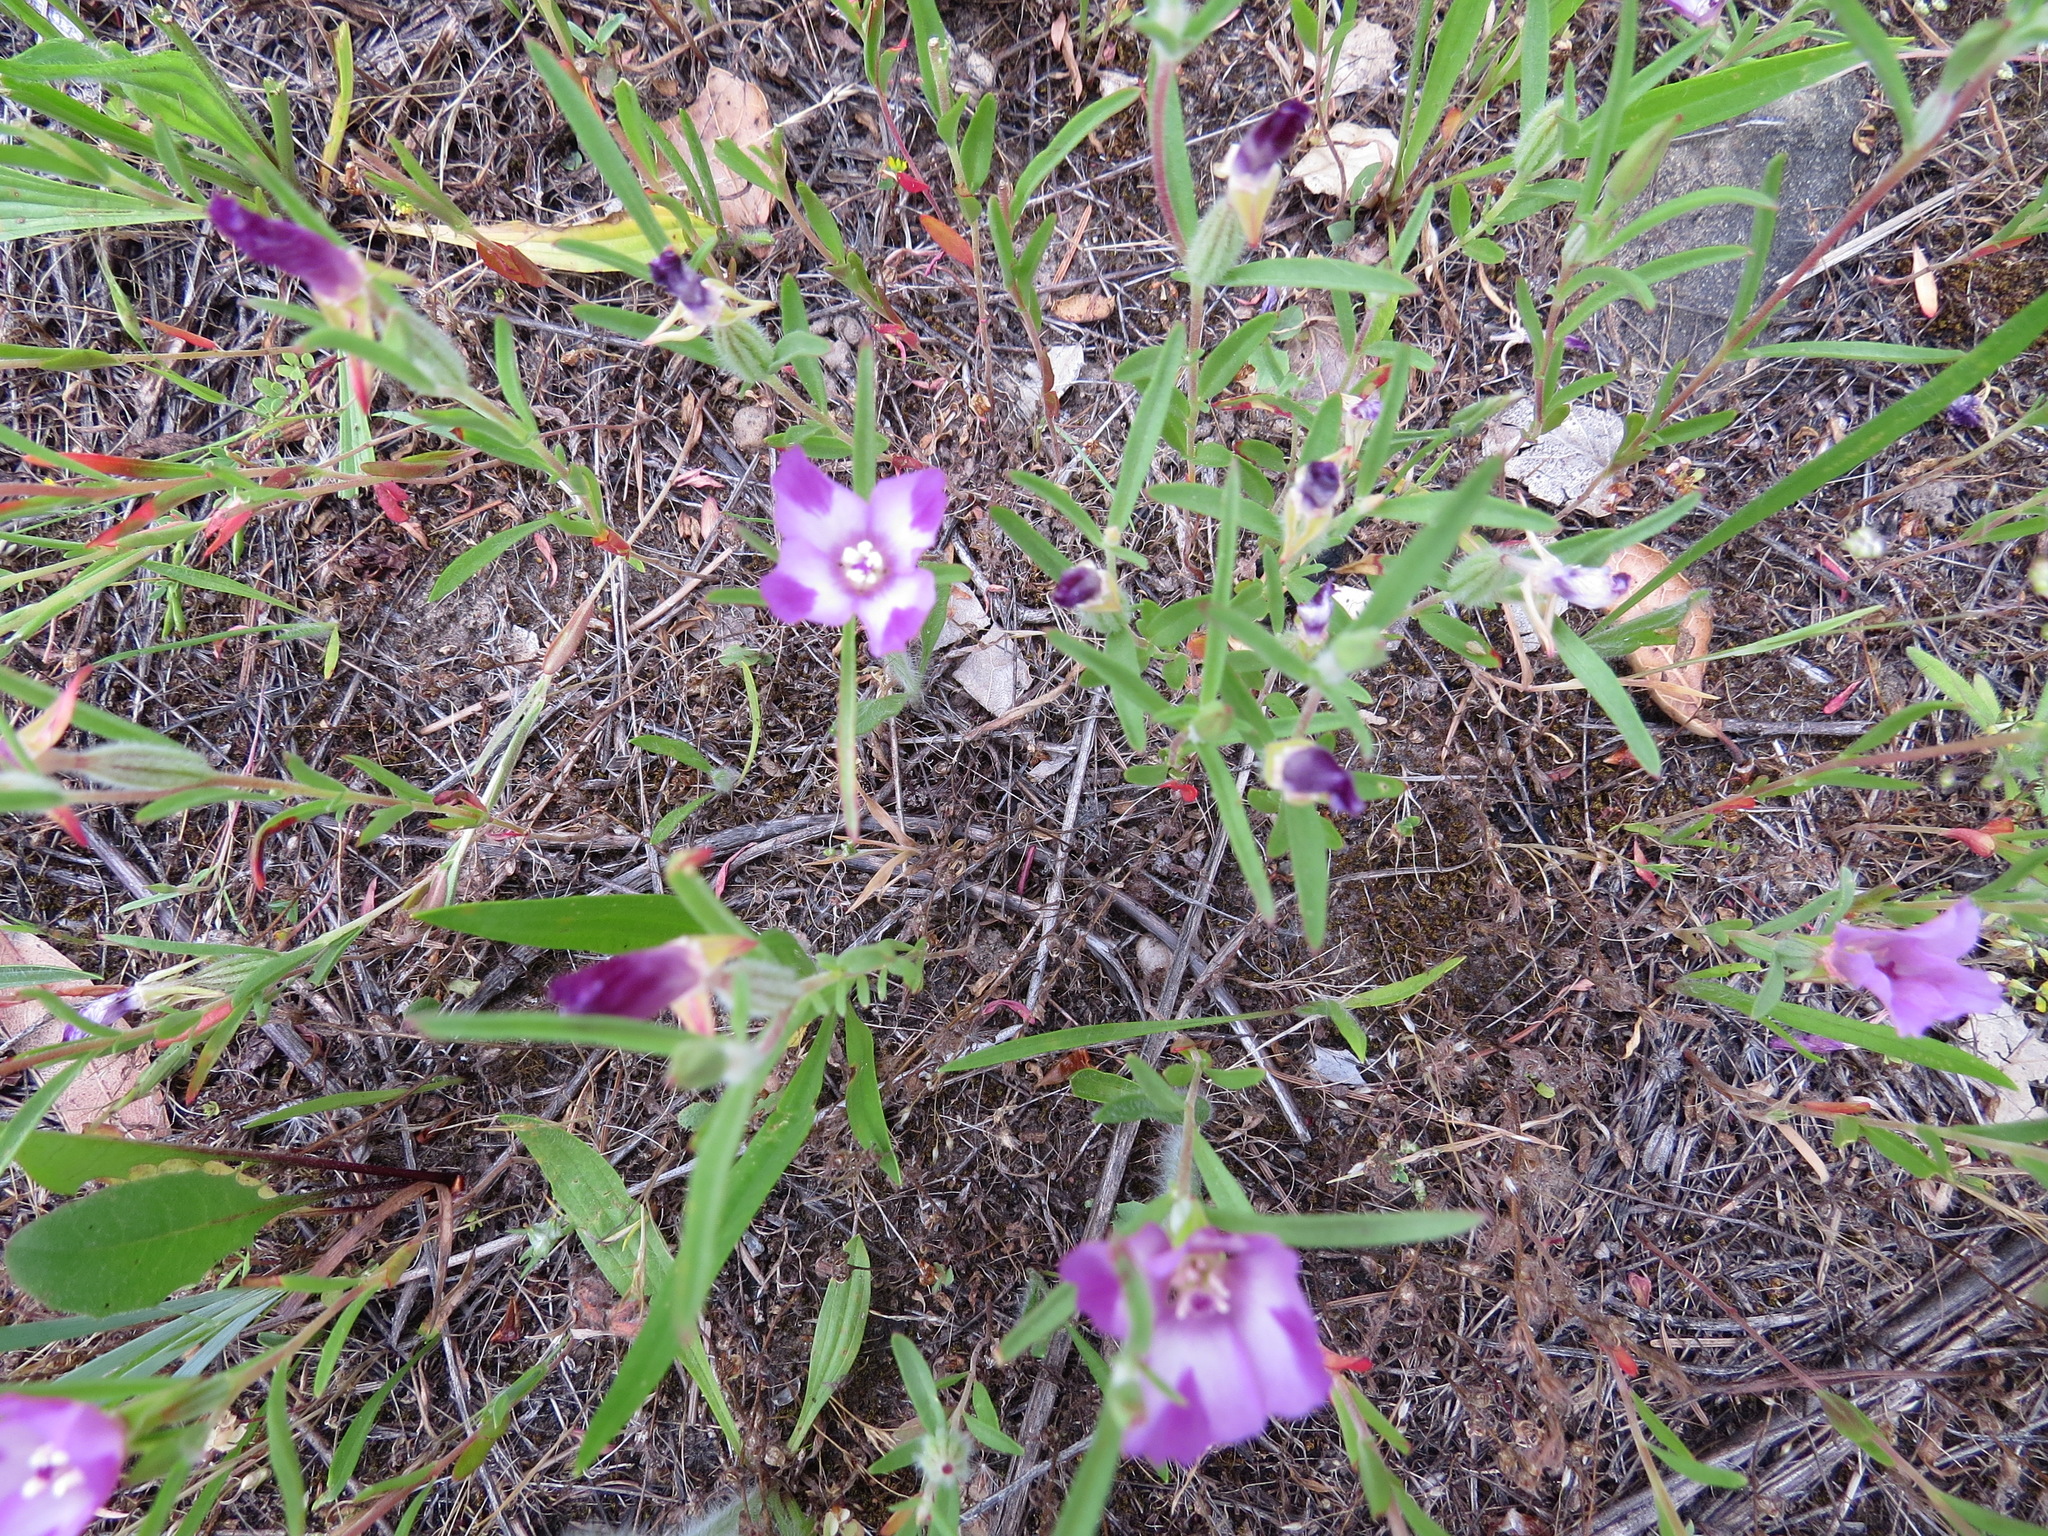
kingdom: Plantae
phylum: Tracheophyta
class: Magnoliopsida
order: Myrtales
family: Onagraceae
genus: Clarkia
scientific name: Clarkia purpurea
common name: Purple clarkia
